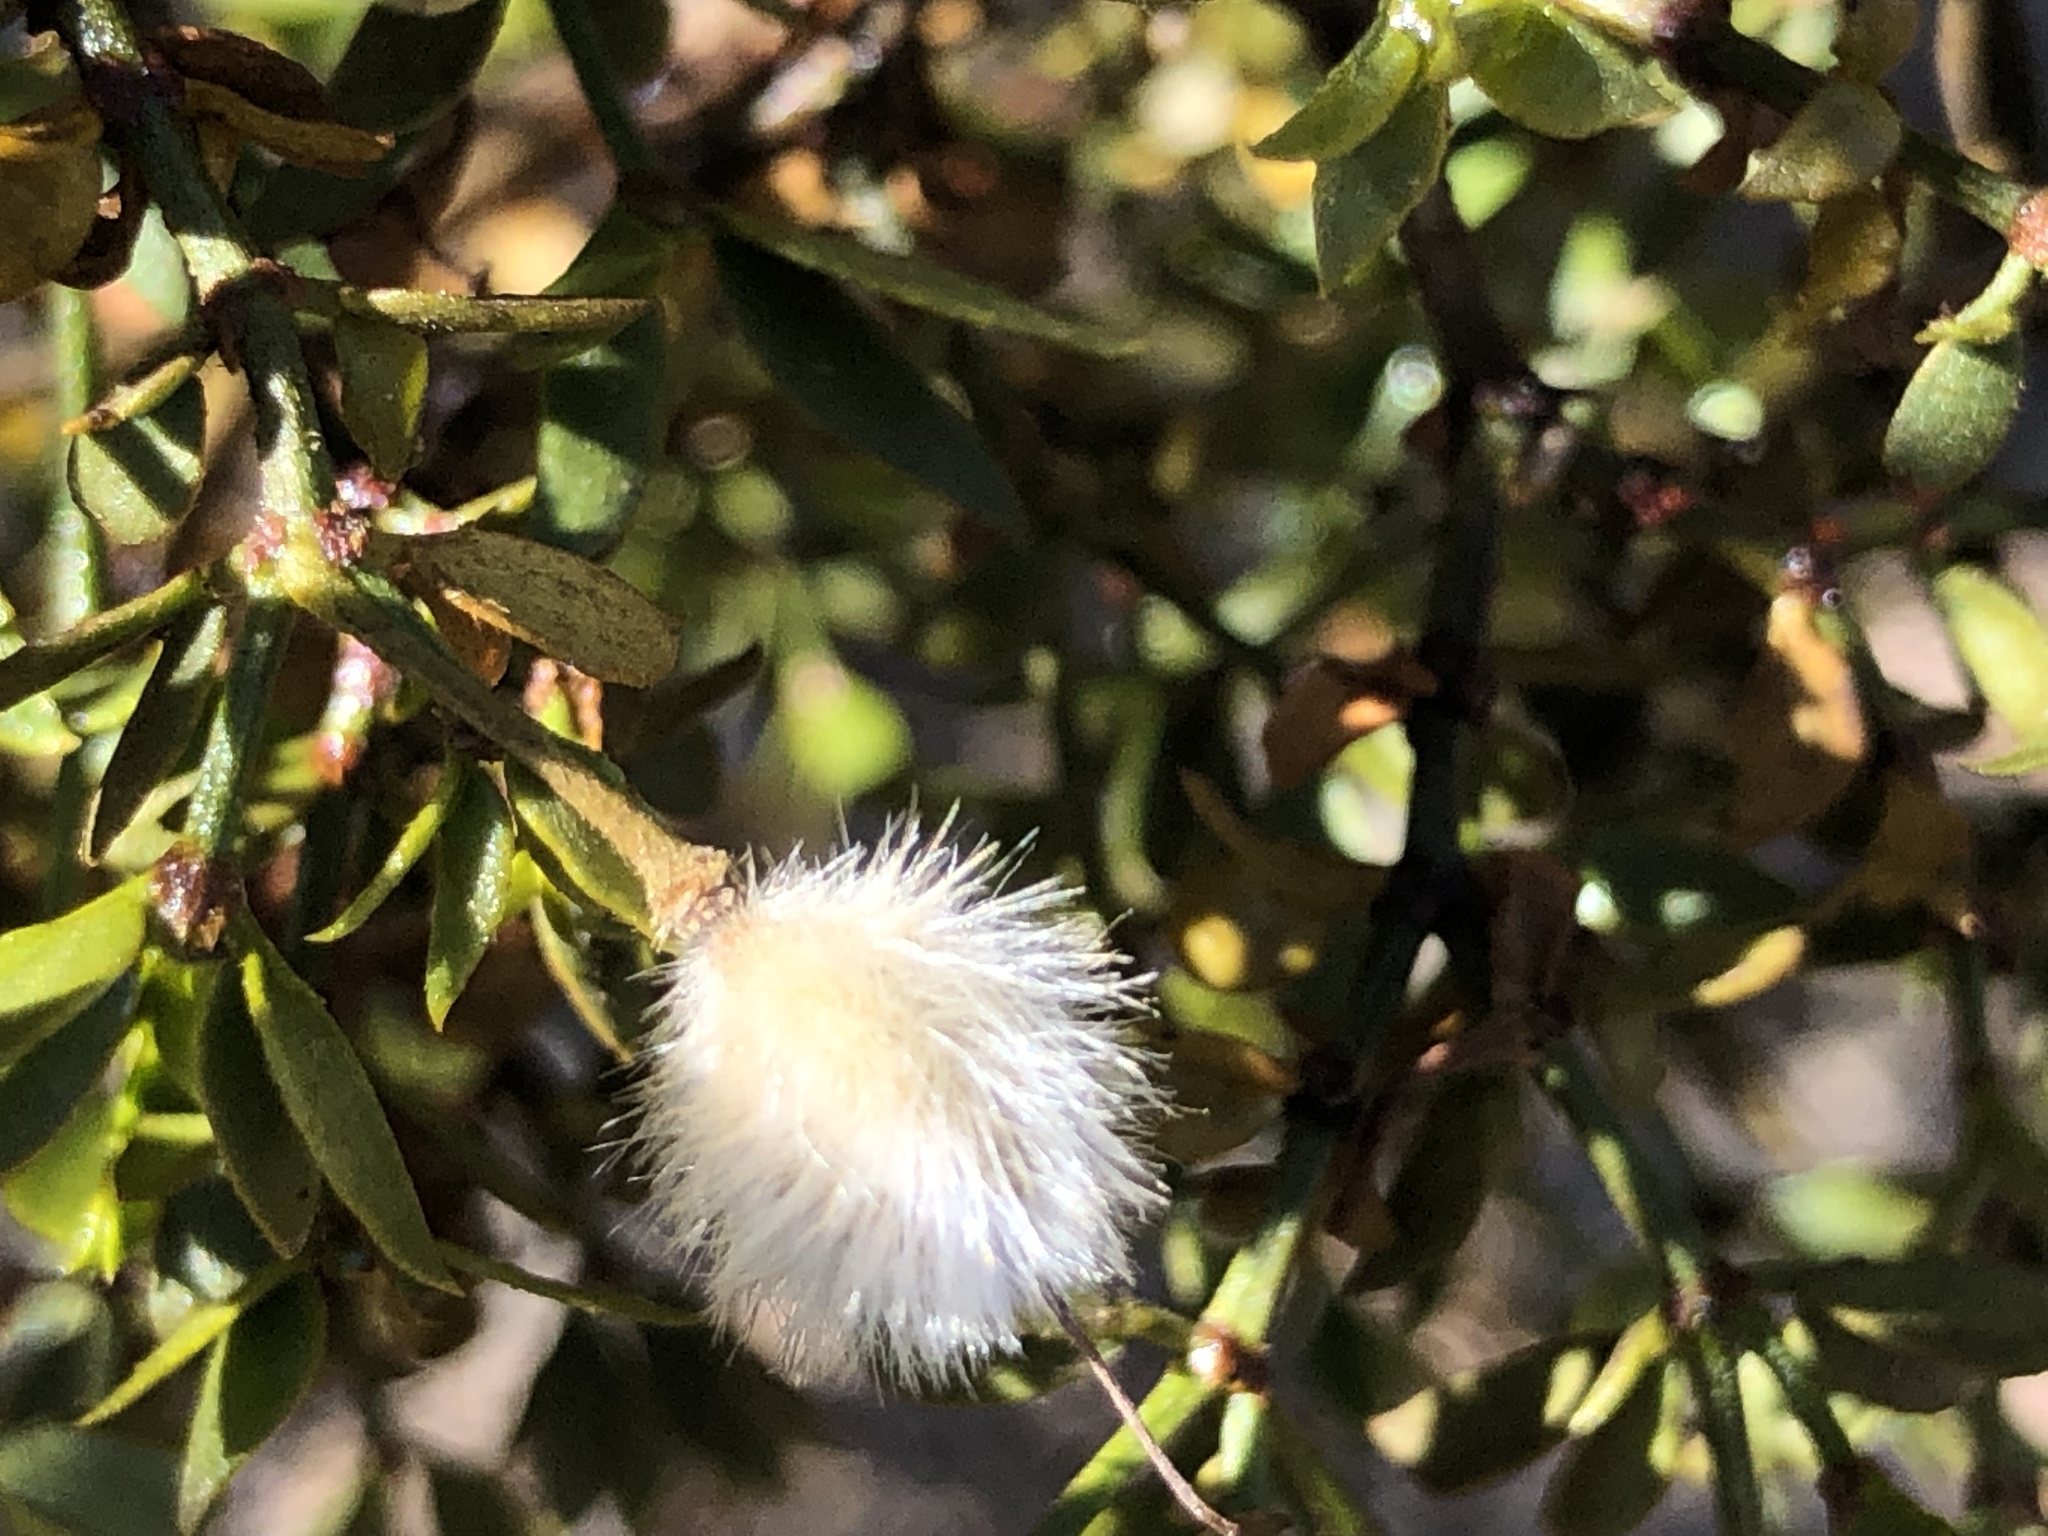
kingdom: Plantae
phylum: Tracheophyta
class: Magnoliopsida
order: Zygophyllales
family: Zygophyllaceae
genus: Larrea
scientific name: Larrea tridentata
